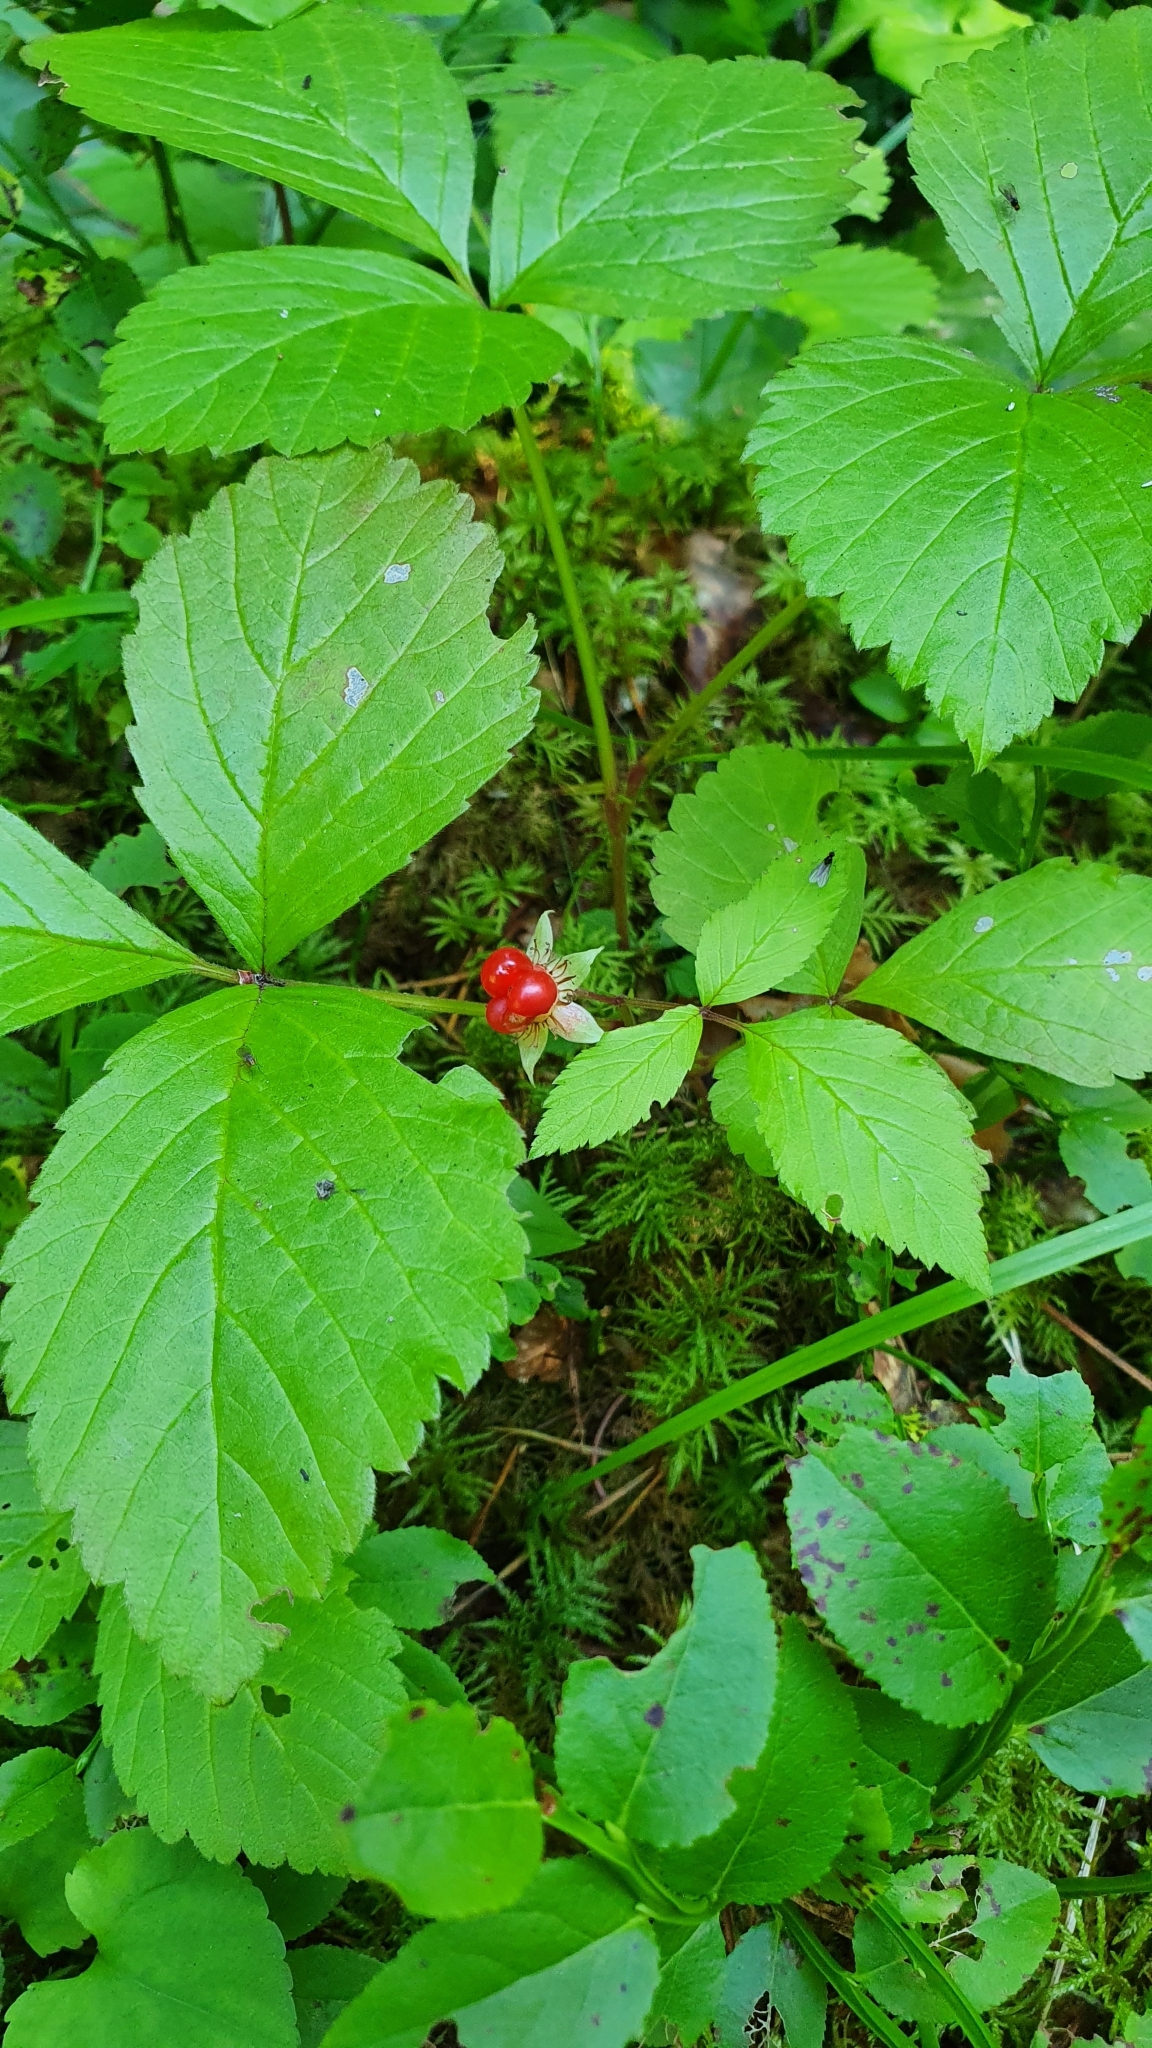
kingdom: Plantae
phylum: Tracheophyta
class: Magnoliopsida
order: Rosales
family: Rosaceae
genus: Rubus
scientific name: Rubus saxatilis
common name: Stone bramble
